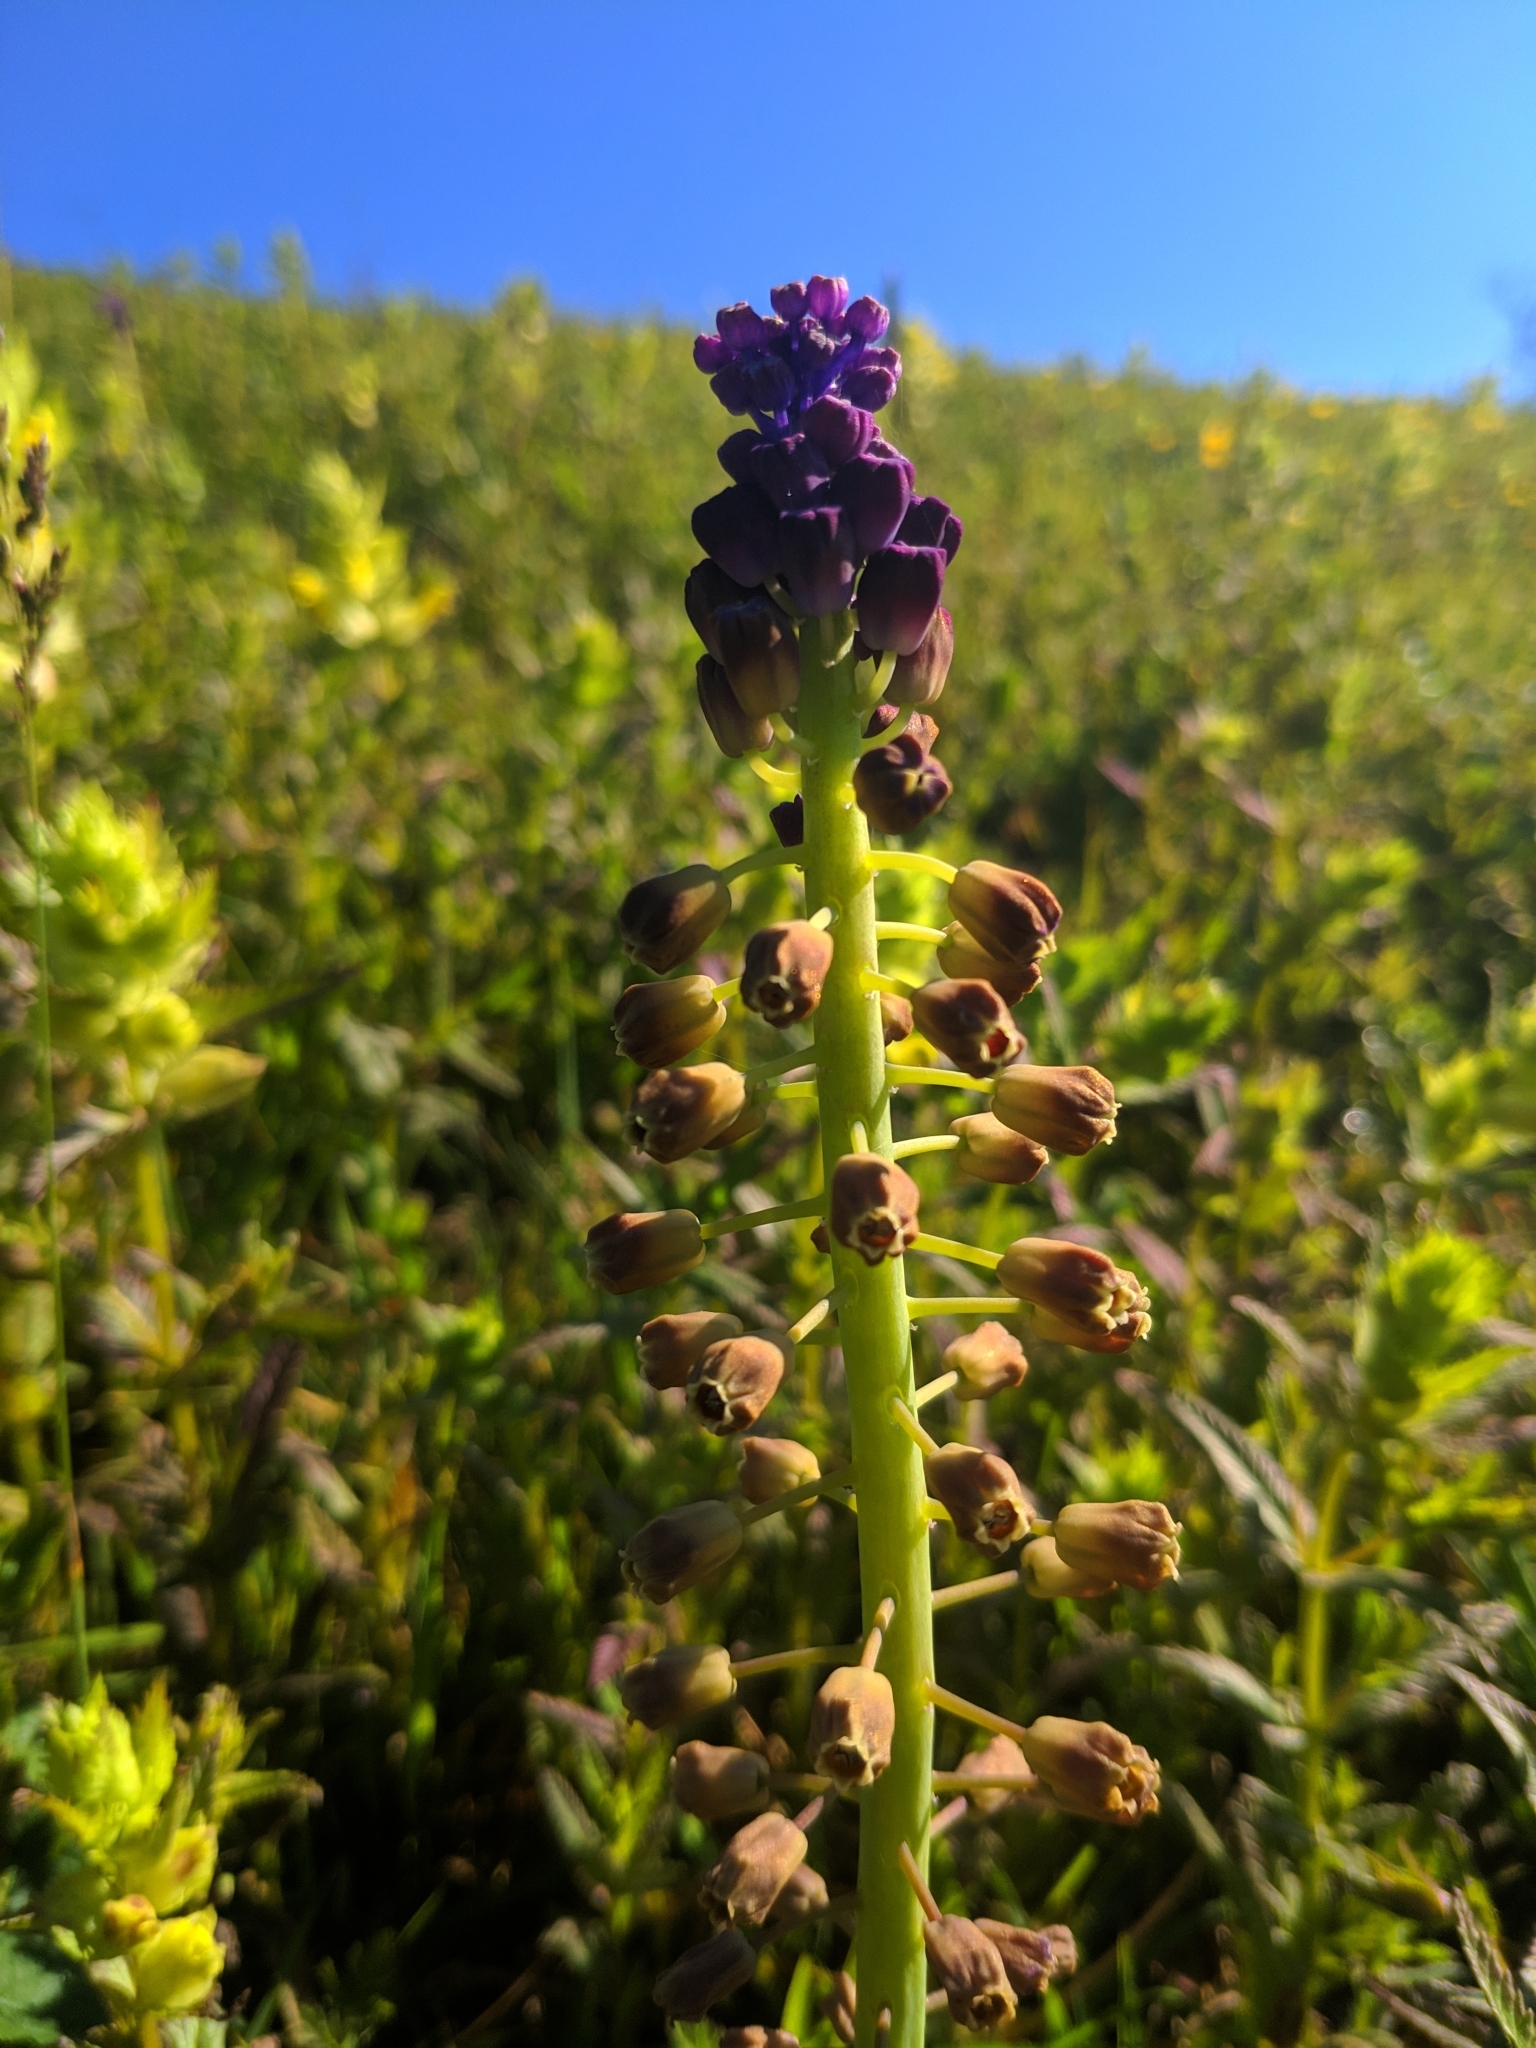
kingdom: Plantae
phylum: Tracheophyta
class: Liliopsida
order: Asparagales
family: Asparagaceae
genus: Muscari
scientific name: Muscari comosum
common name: Tassel hyacinth
